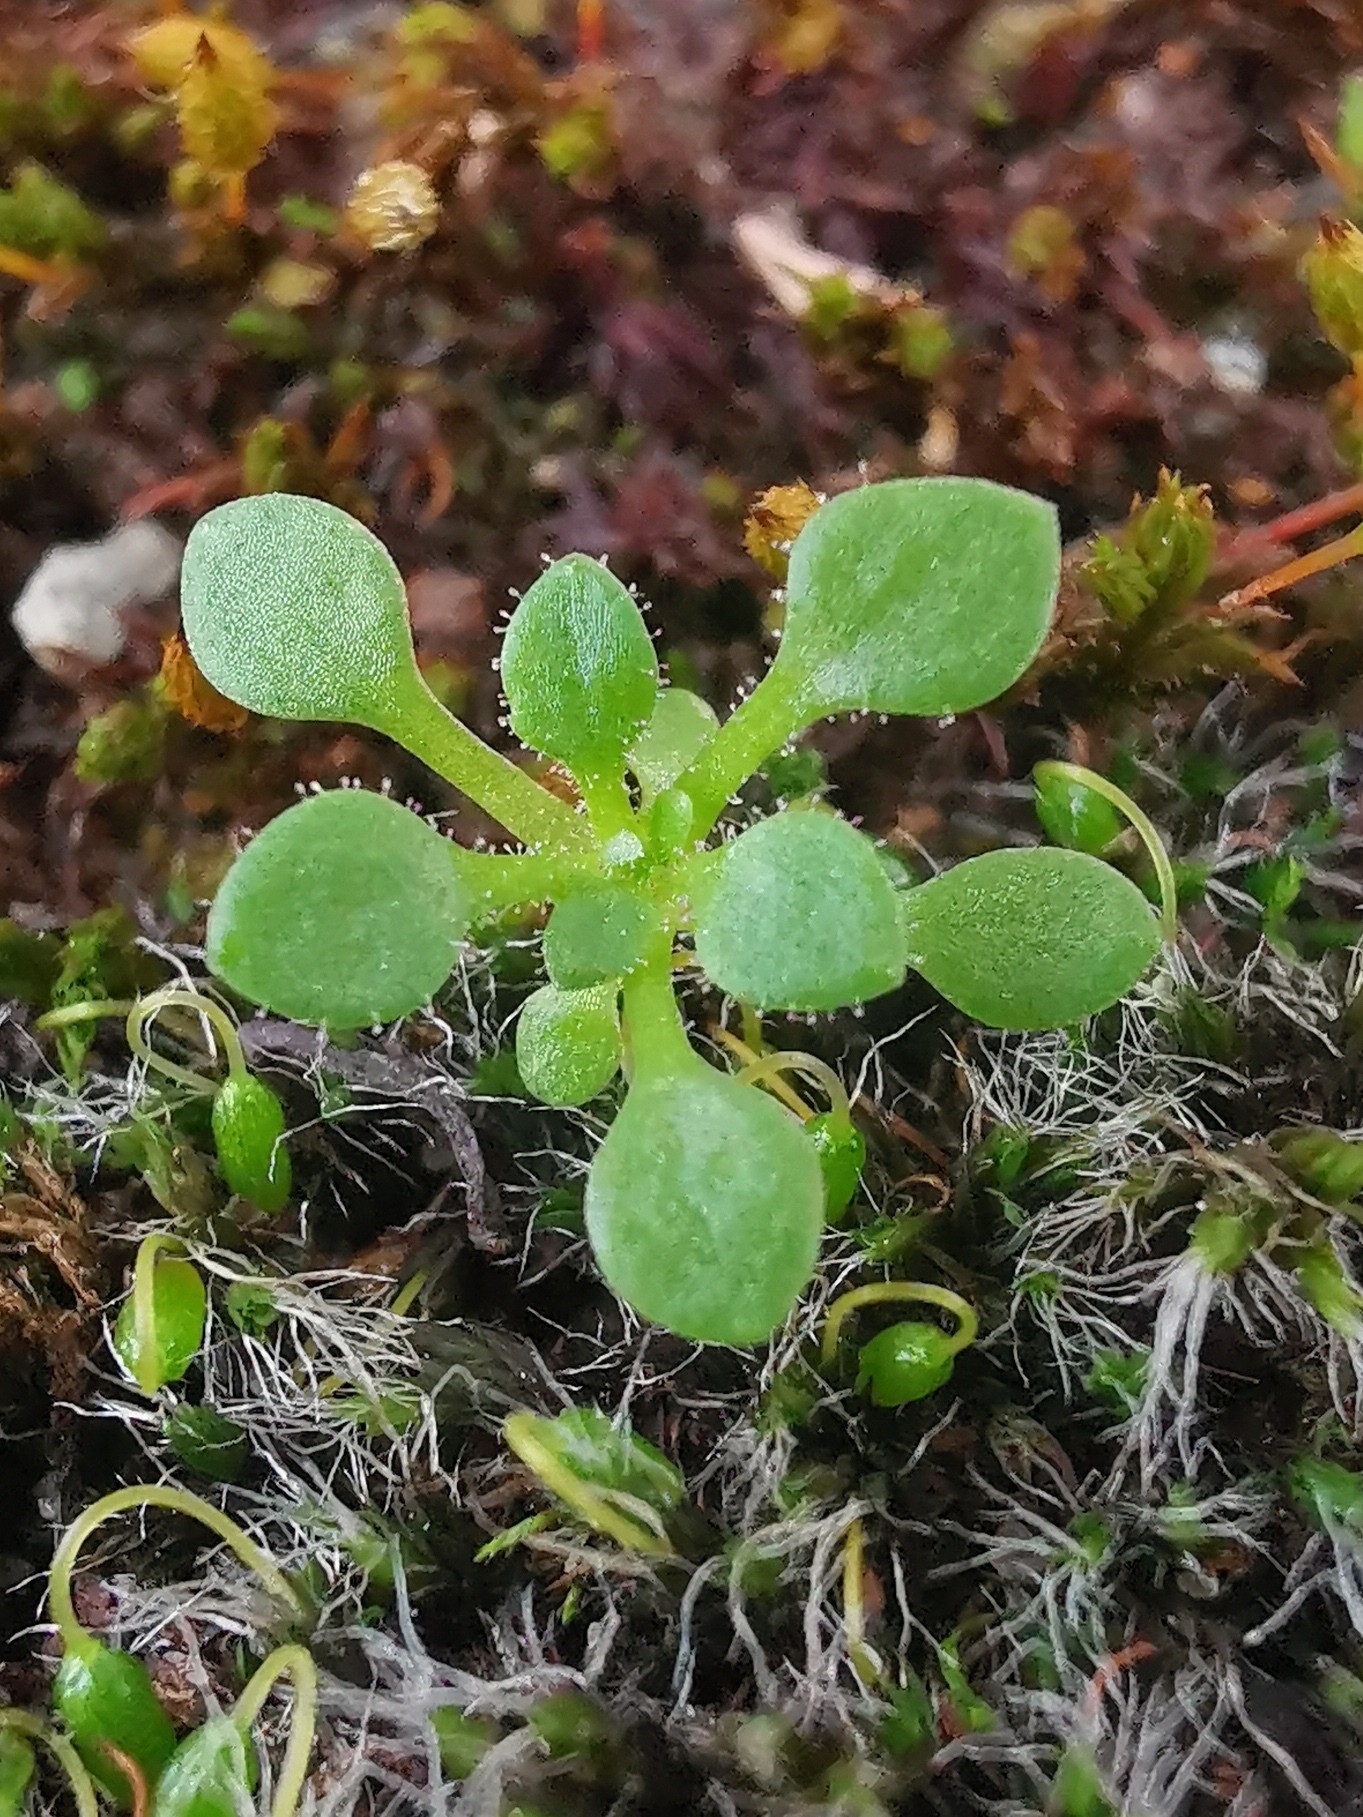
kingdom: Plantae
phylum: Tracheophyta
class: Magnoliopsida
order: Saxifragales
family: Saxifragaceae
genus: Saxifraga
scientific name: Saxifraga tridactylites
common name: Rue-leaved saxifrage
